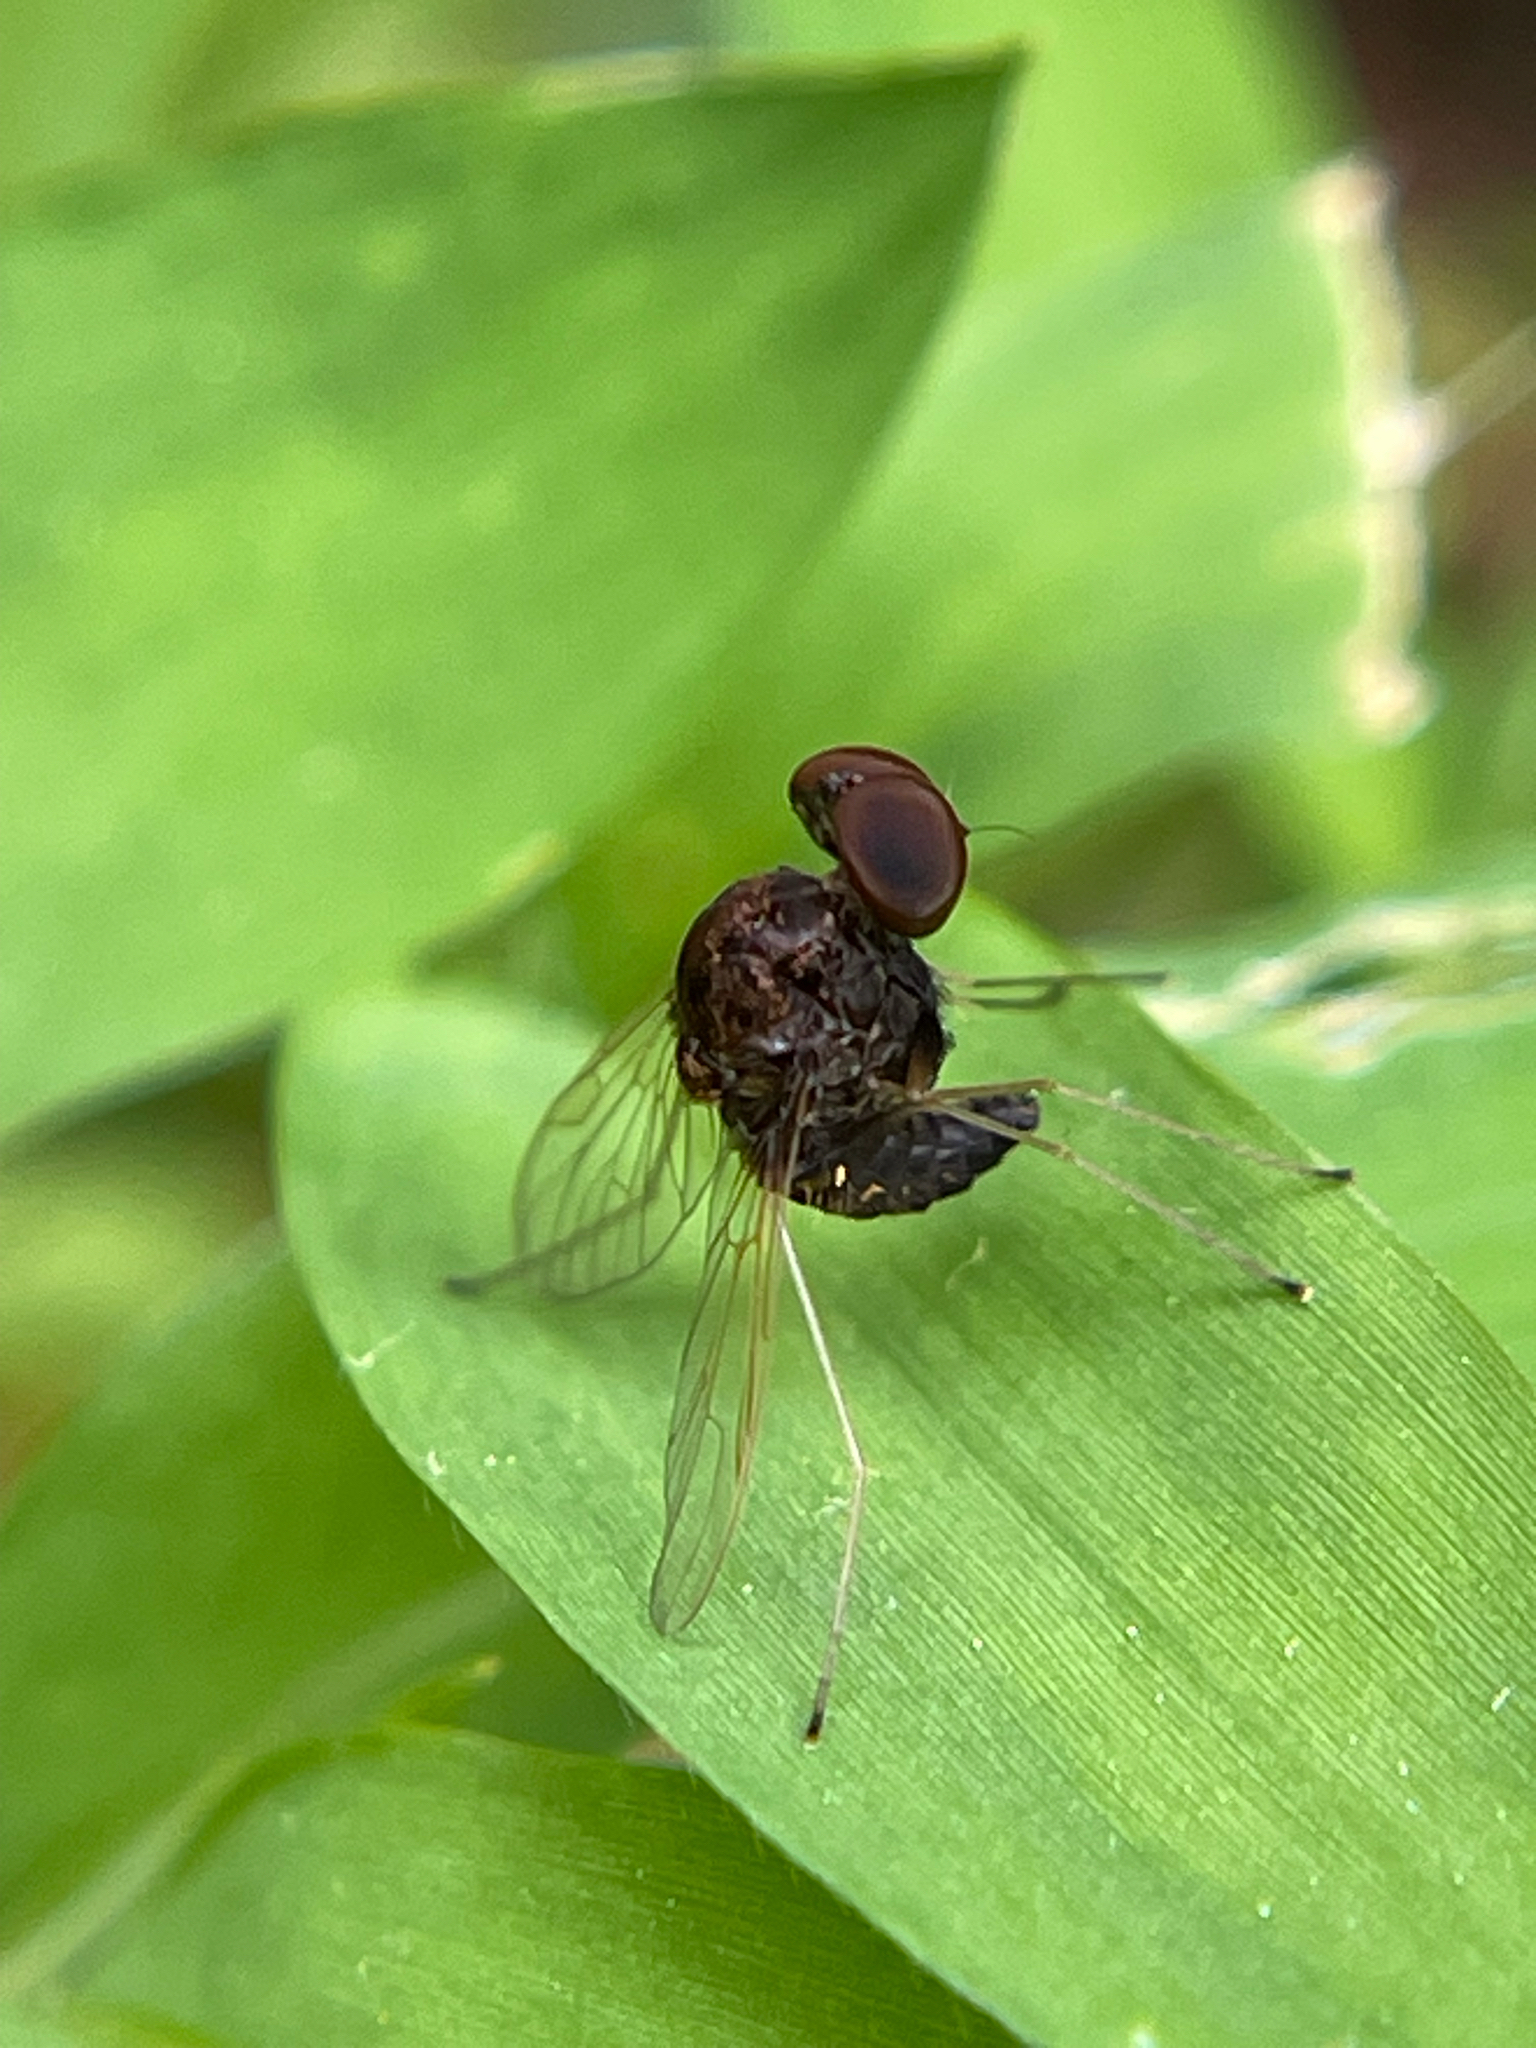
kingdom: Animalia
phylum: Arthropoda
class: Insecta
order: Diptera
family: Rhagionidae
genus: Chrysopilus
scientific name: Chrysopilus basilaris
